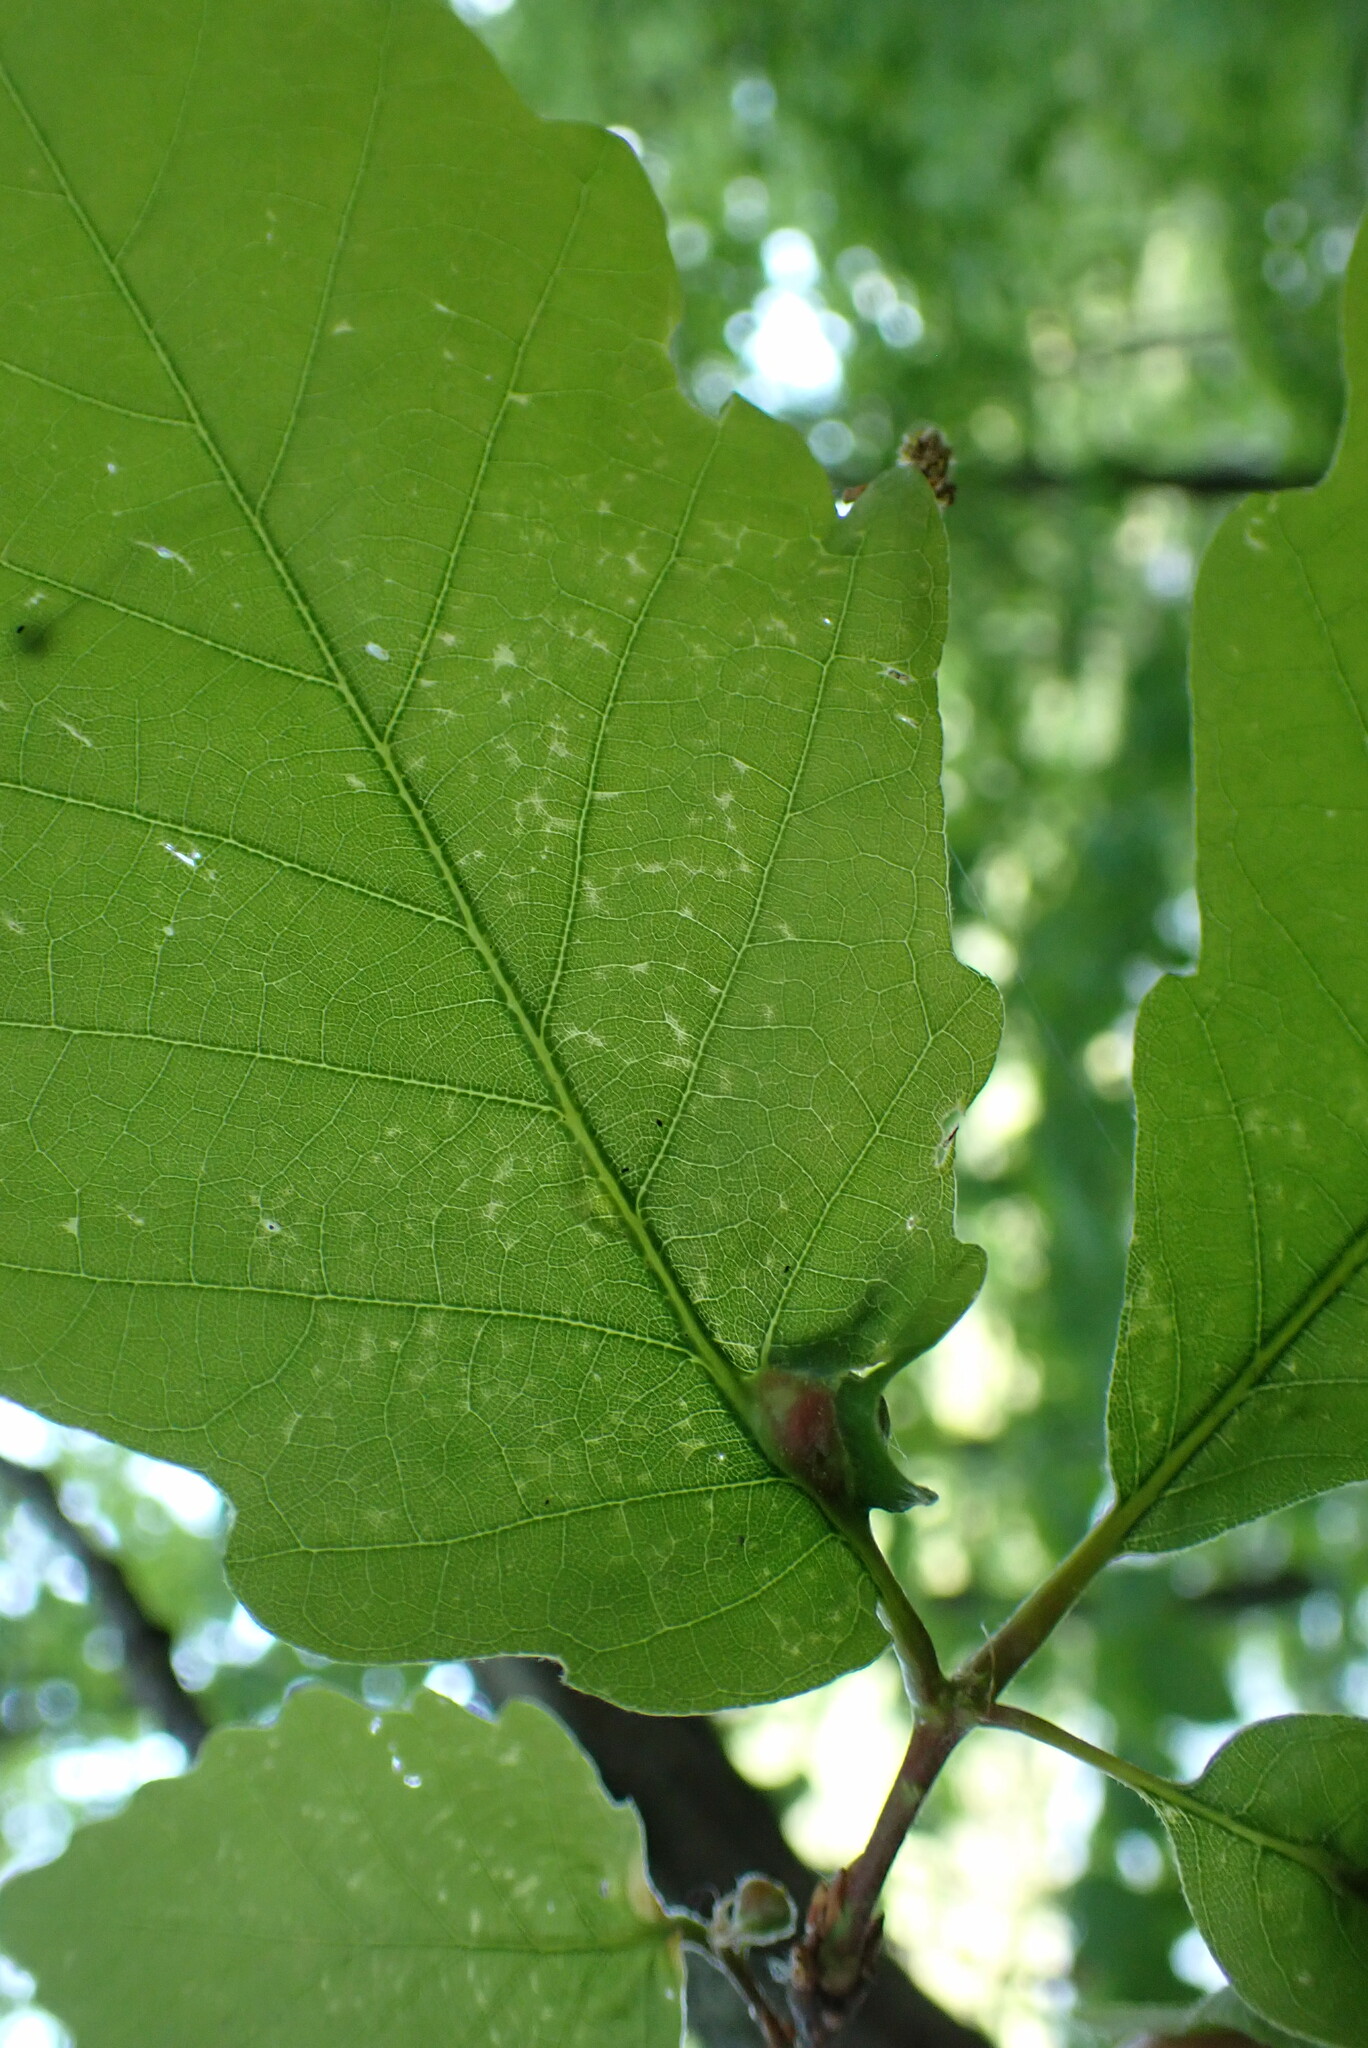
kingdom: Animalia
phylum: Arthropoda
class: Insecta
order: Hymenoptera
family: Cynipidae
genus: Andricus
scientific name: Andricus
